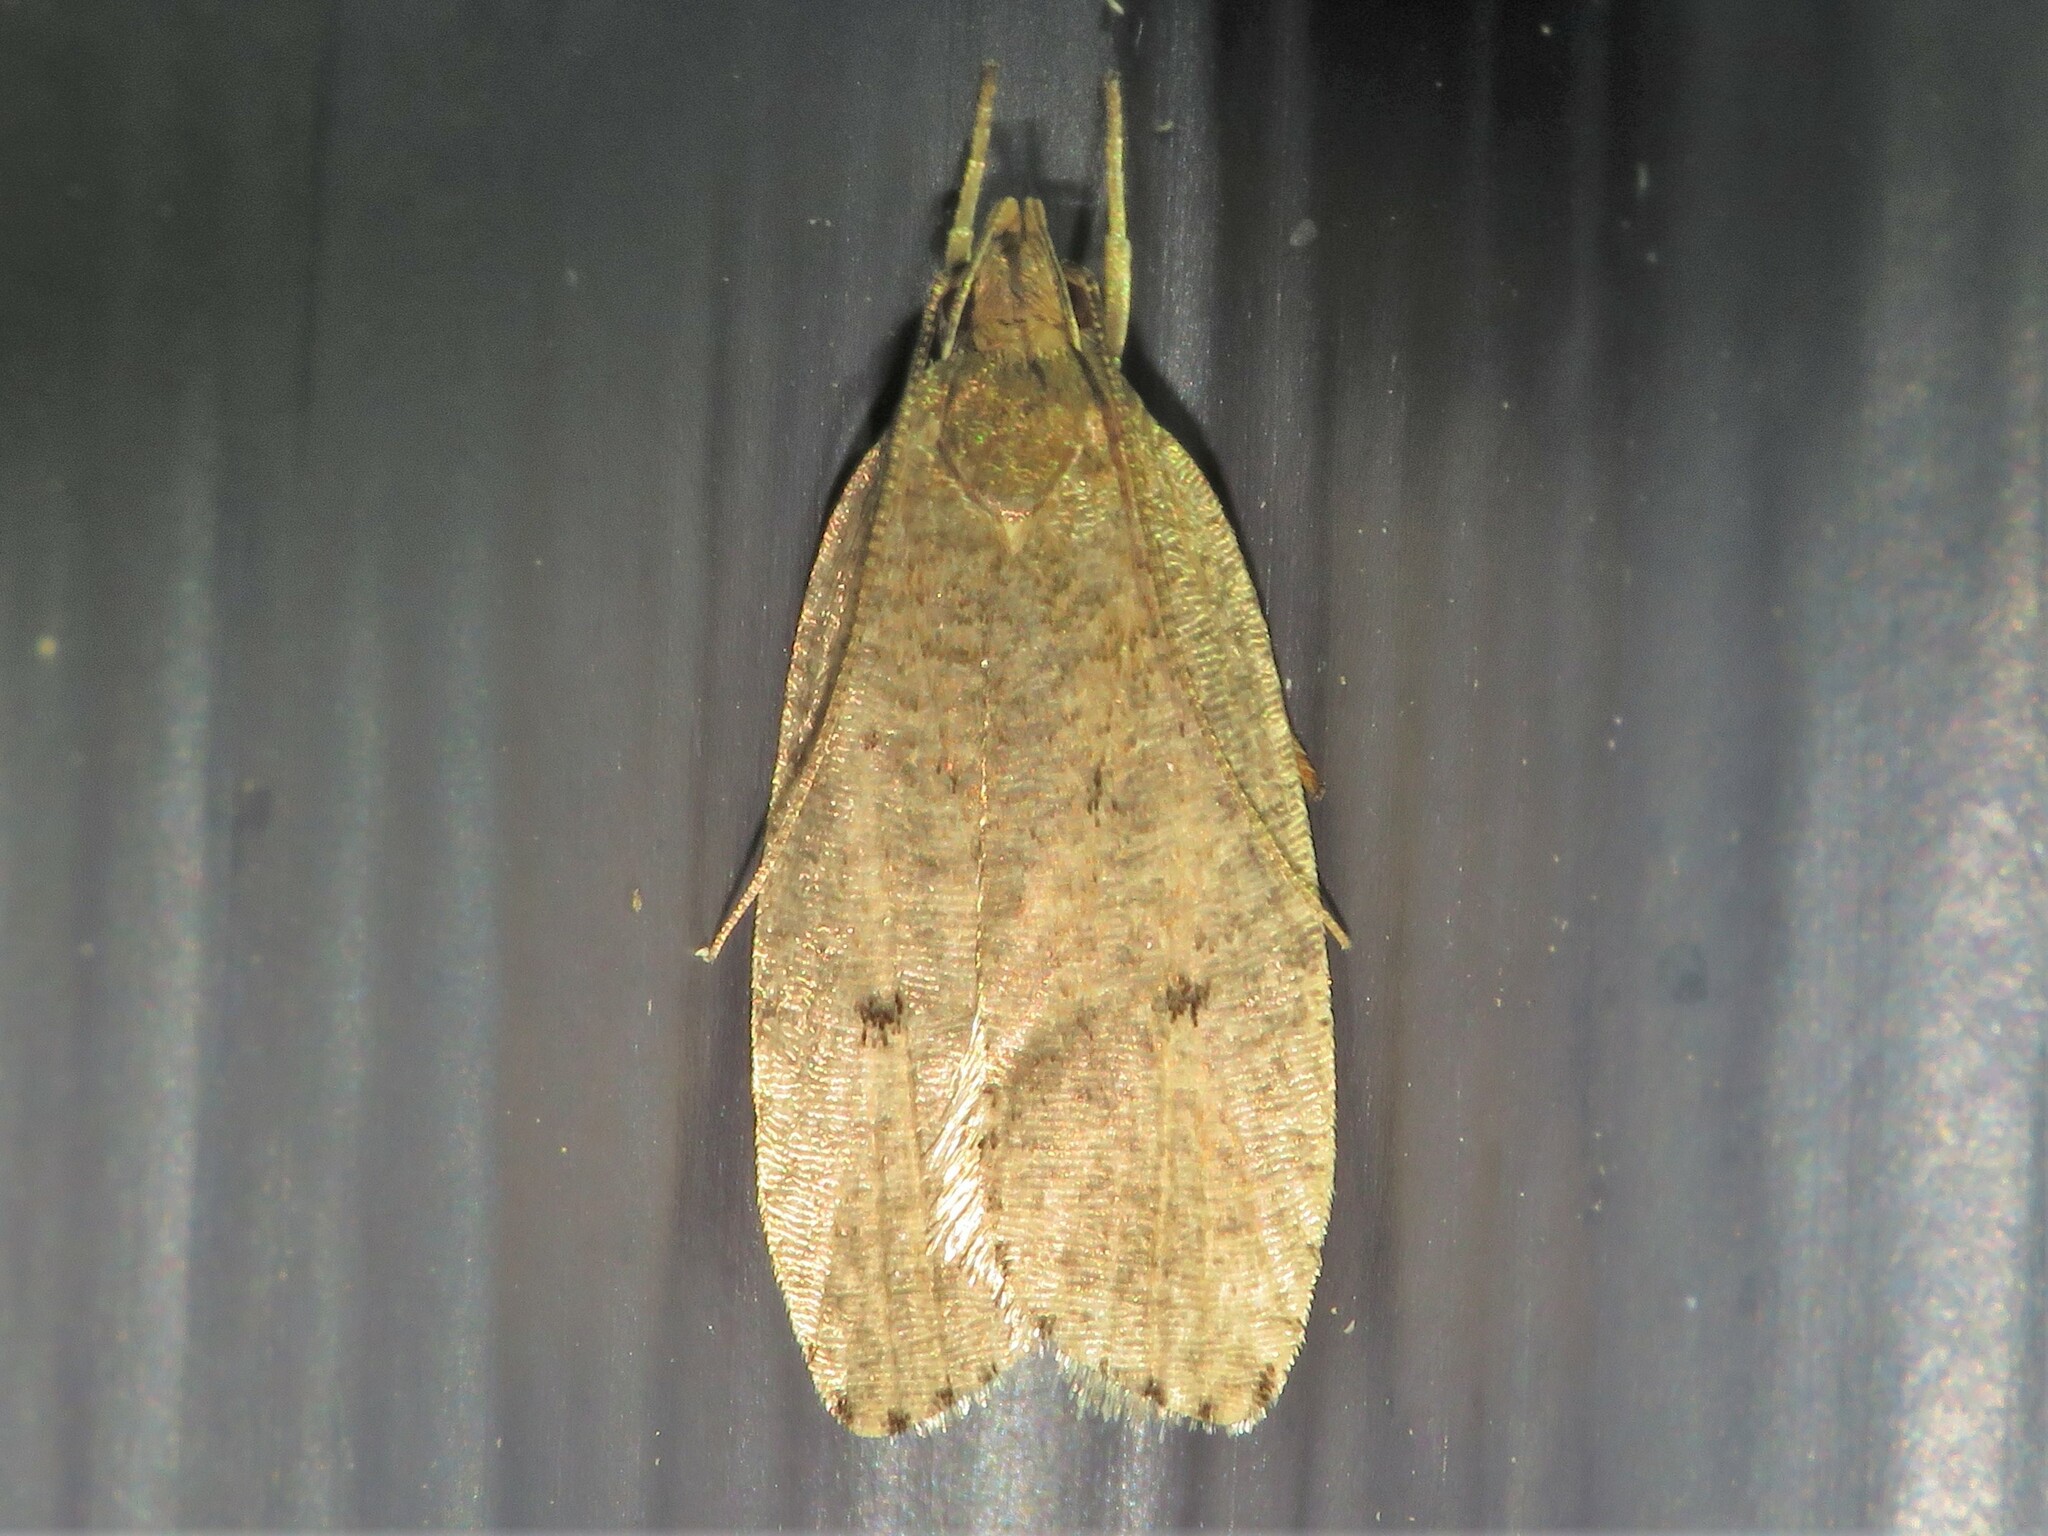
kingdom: Animalia
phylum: Arthropoda
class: Insecta
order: Lepidoptera
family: Depressariidae
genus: Psilocorsis
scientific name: Psilocorsis reflexella
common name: Dotted leaftier moth
